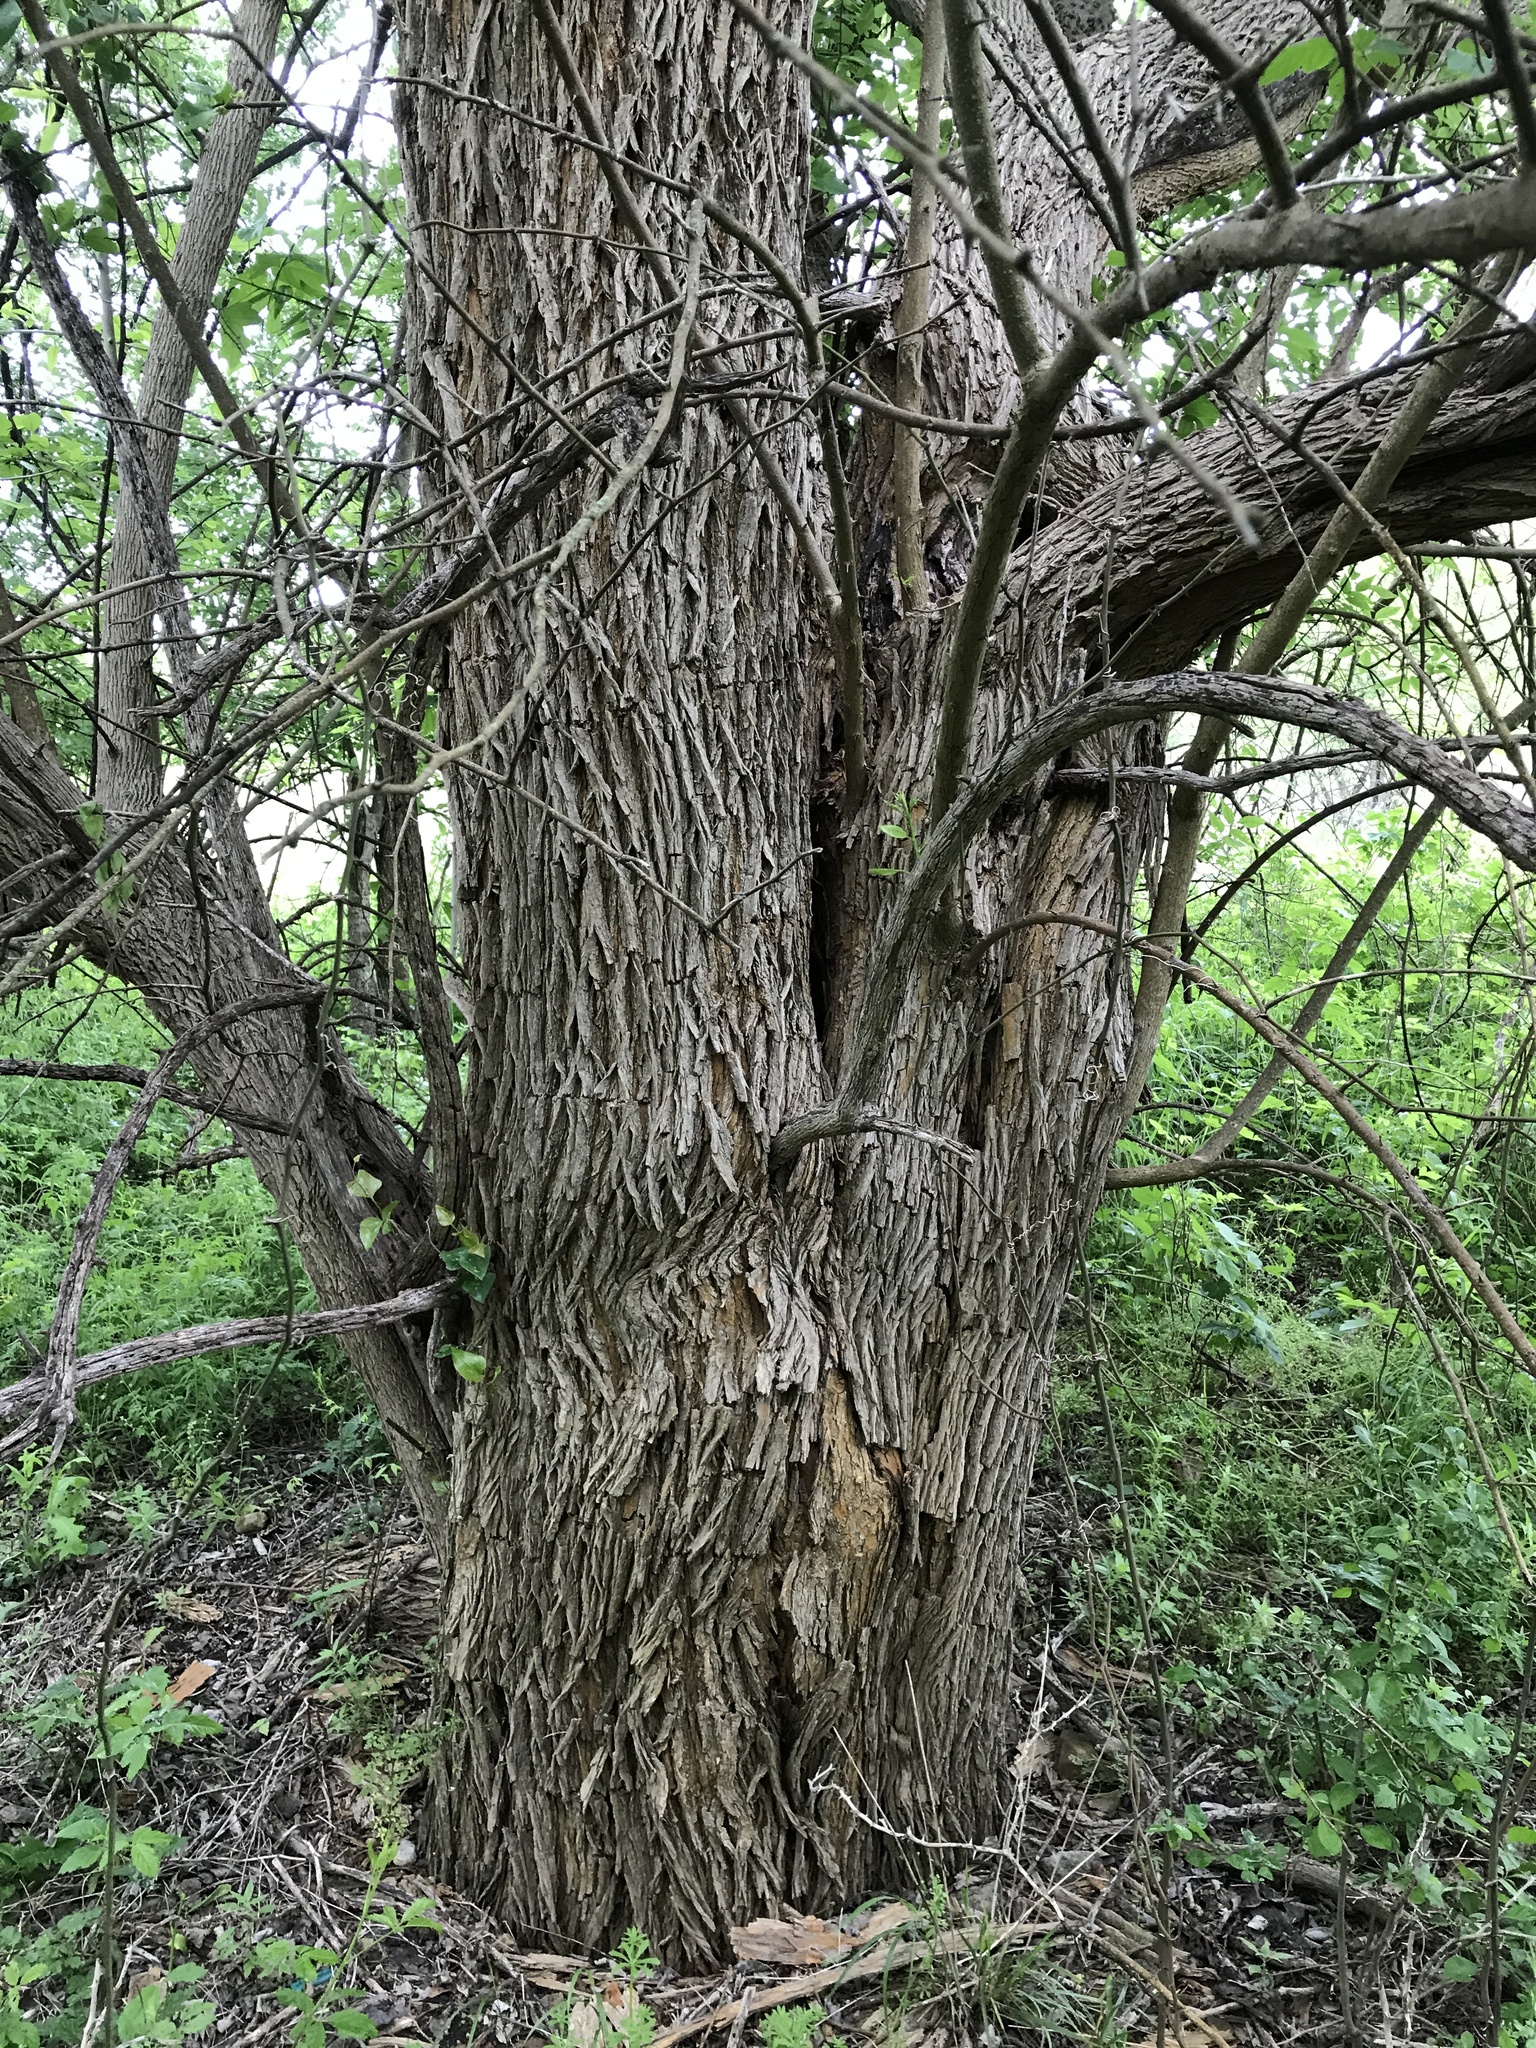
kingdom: Plantae
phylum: Tracheophyta
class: Magnoliopsida
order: Rosales
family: Moraceae
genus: Maclura
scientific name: Maclura pomifera
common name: Osage-orange
